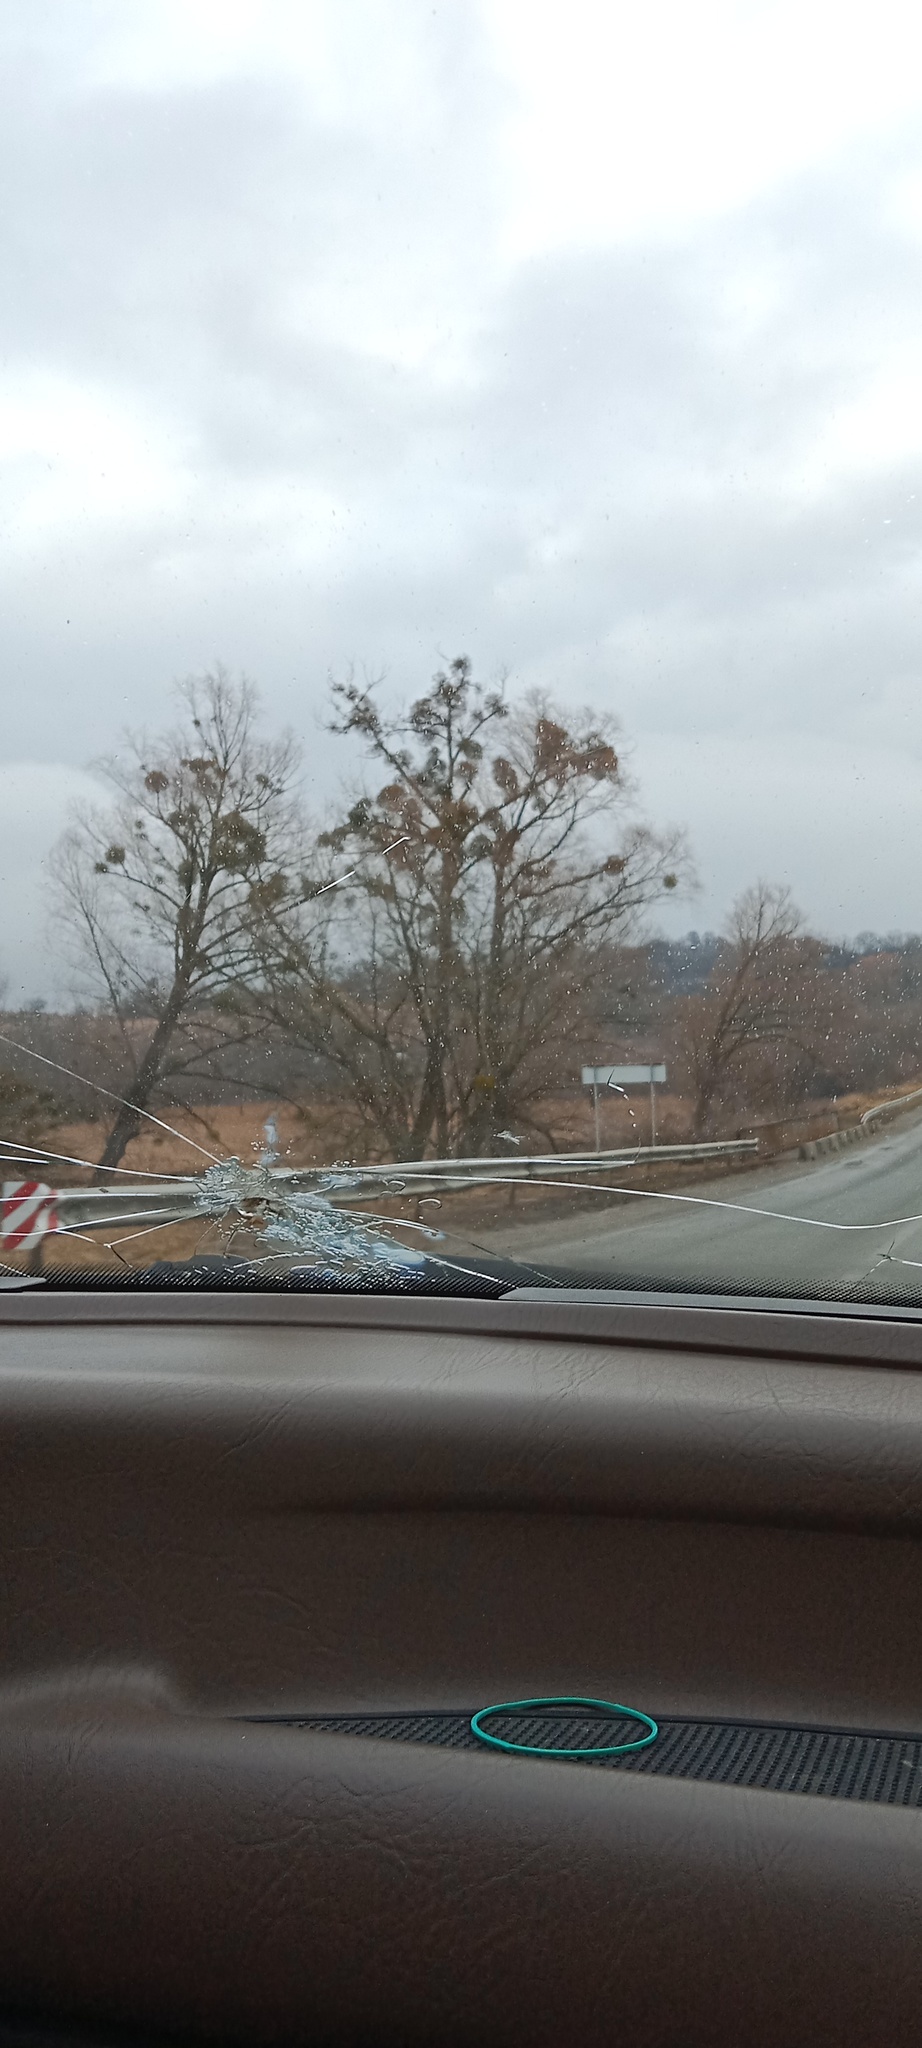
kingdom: Plantae
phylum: Tracheophyta
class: Magnoliopsida
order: Santalales
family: Viscaceae
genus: Viscum
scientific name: Viscum album
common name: Mistletoe
